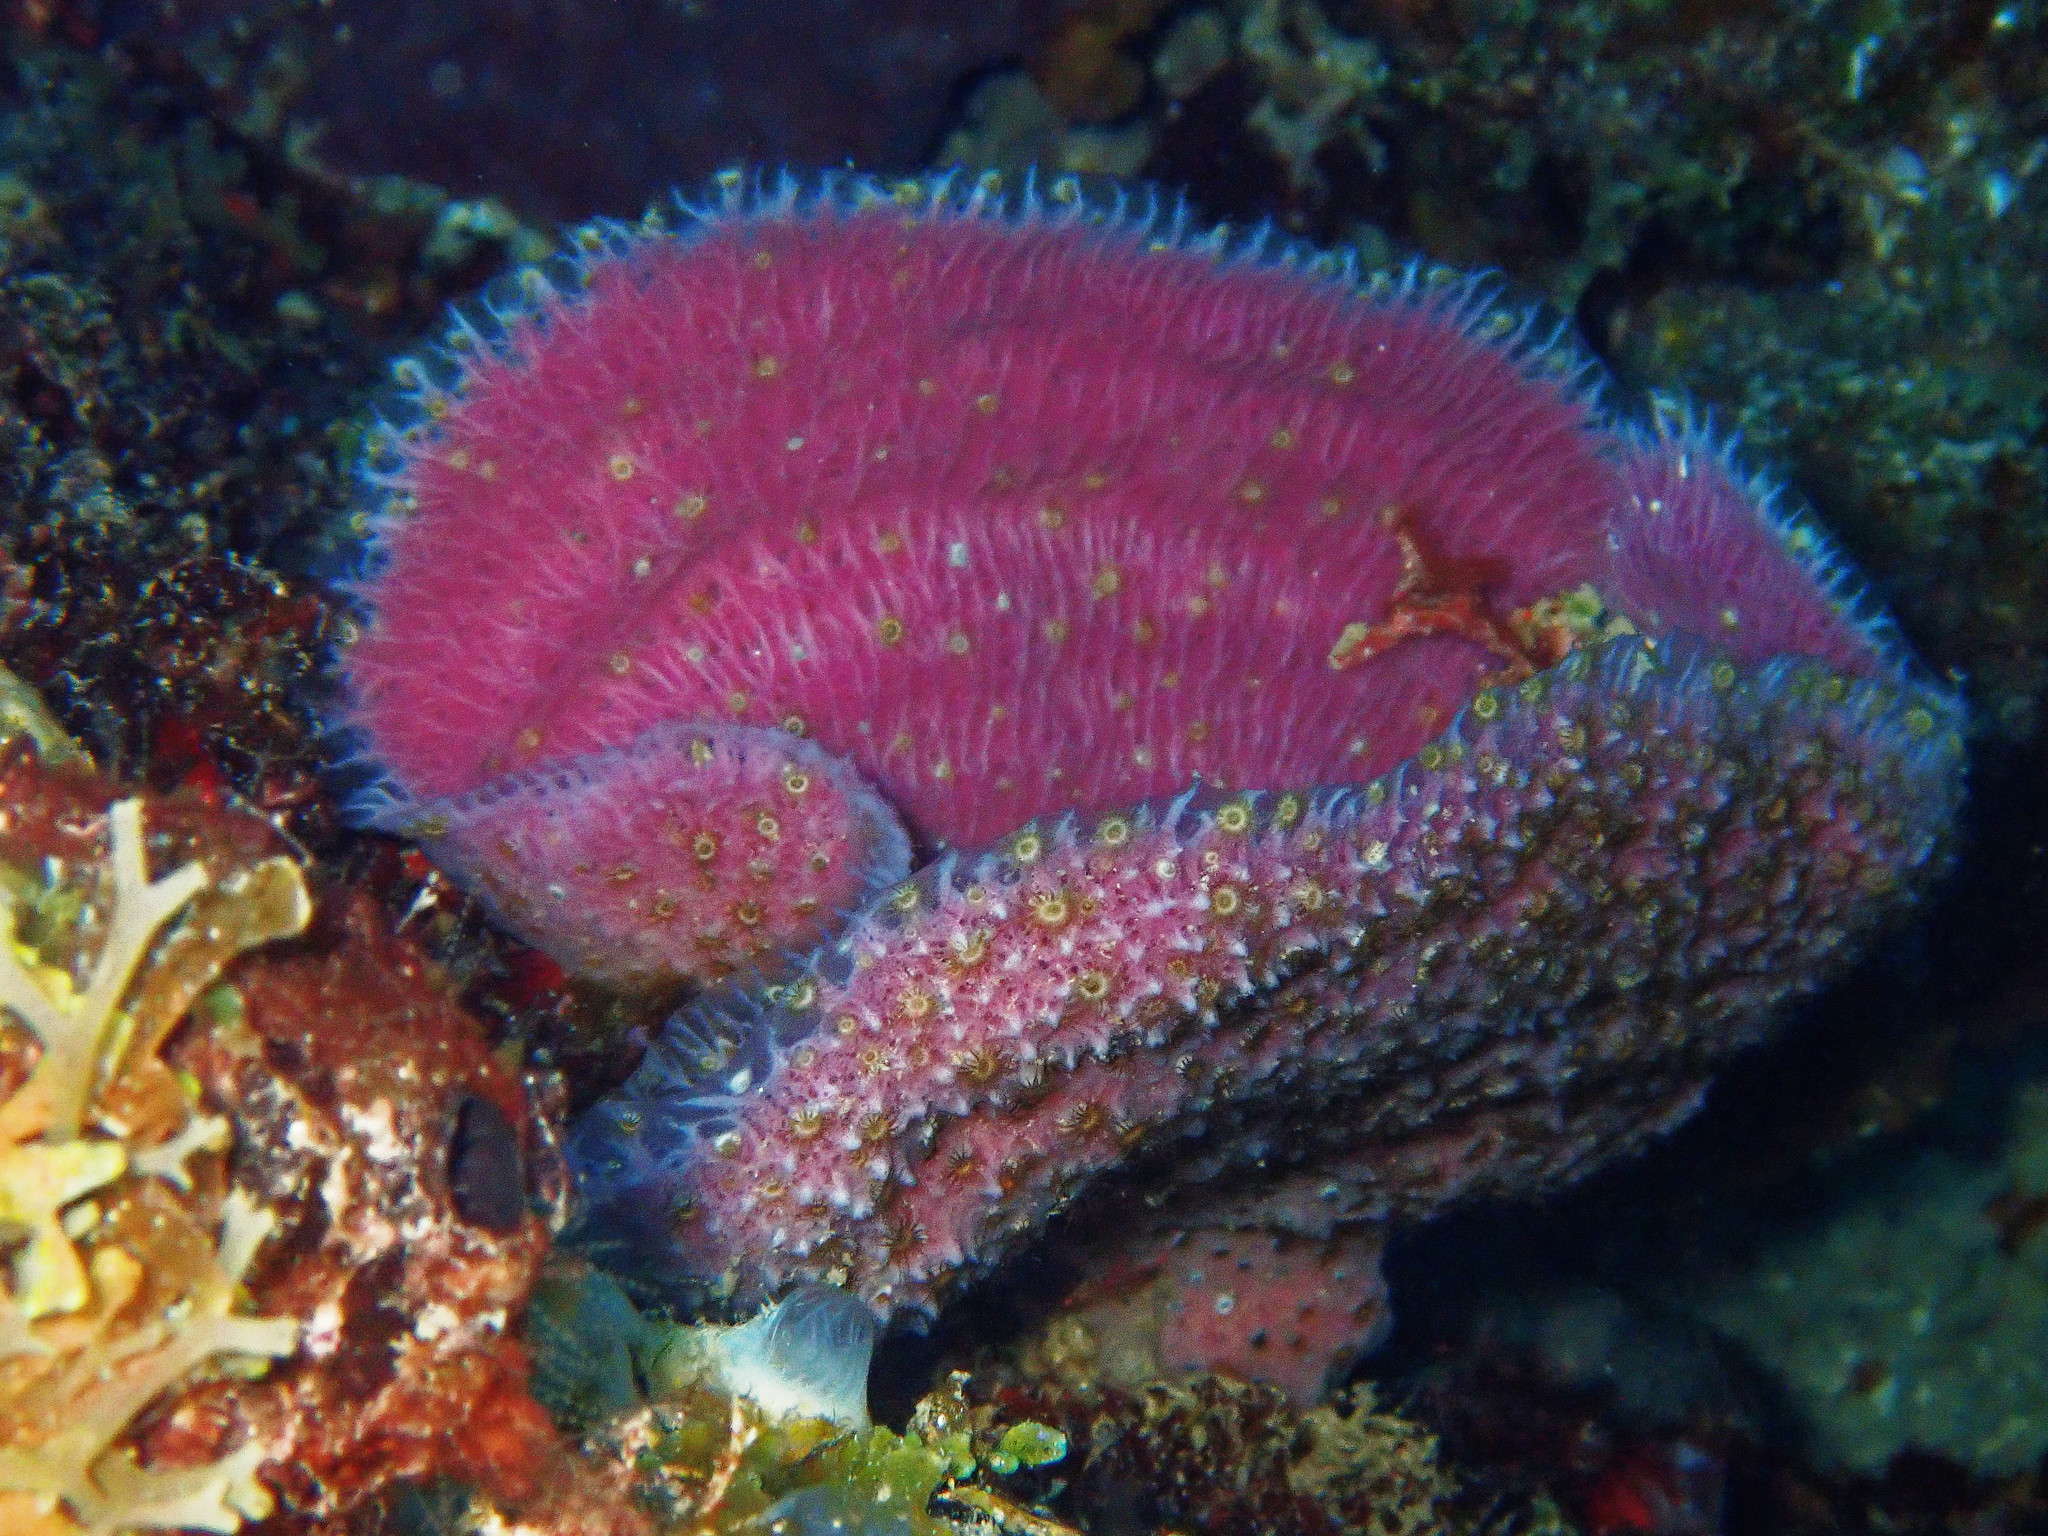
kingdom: Animalia
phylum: Porifera
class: Demospongiae
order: Haplosclerida
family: Niphatidae
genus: Niphates
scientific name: Niphates digitalis
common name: Pink vase sponge
